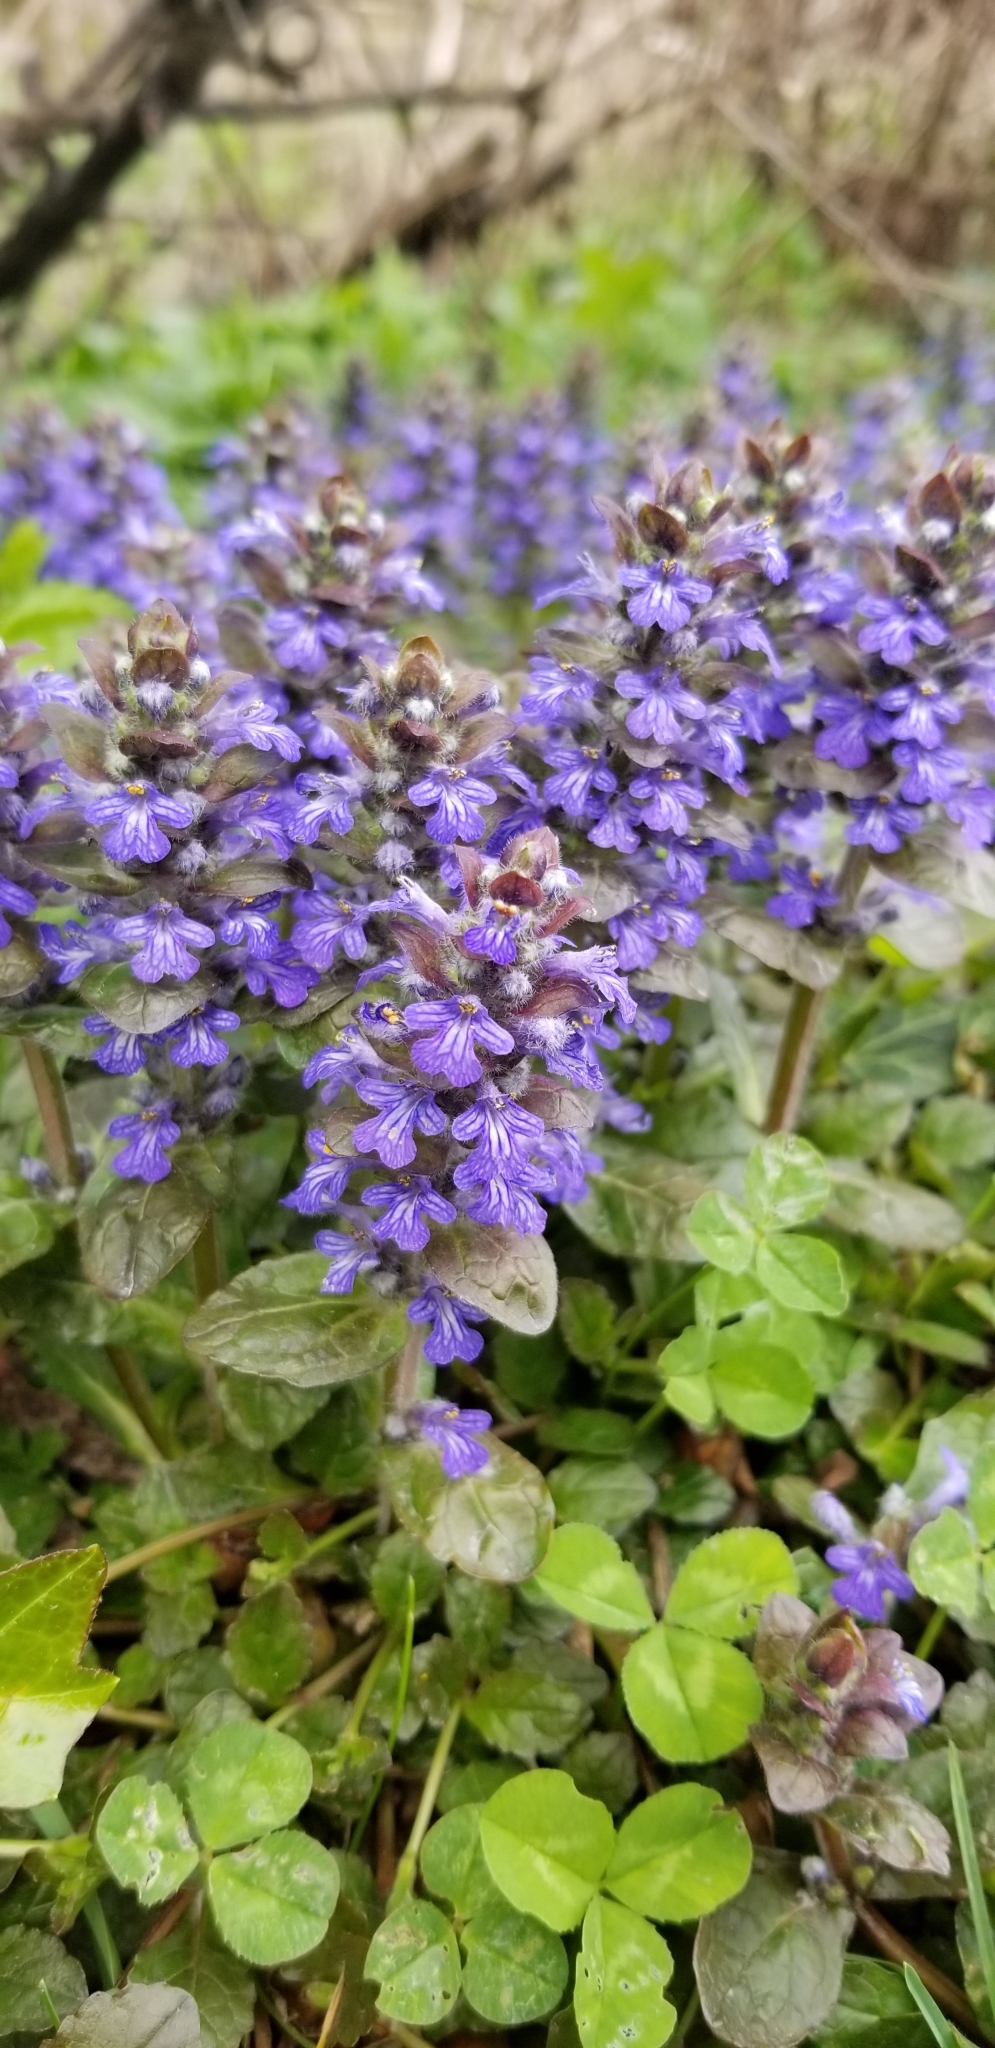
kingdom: Plantae
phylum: Tracheophyta
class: Magnoliopsida
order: Lamiales
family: Lamiaceae
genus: Ajuga
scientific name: Ajuga reptans
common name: Bugle
